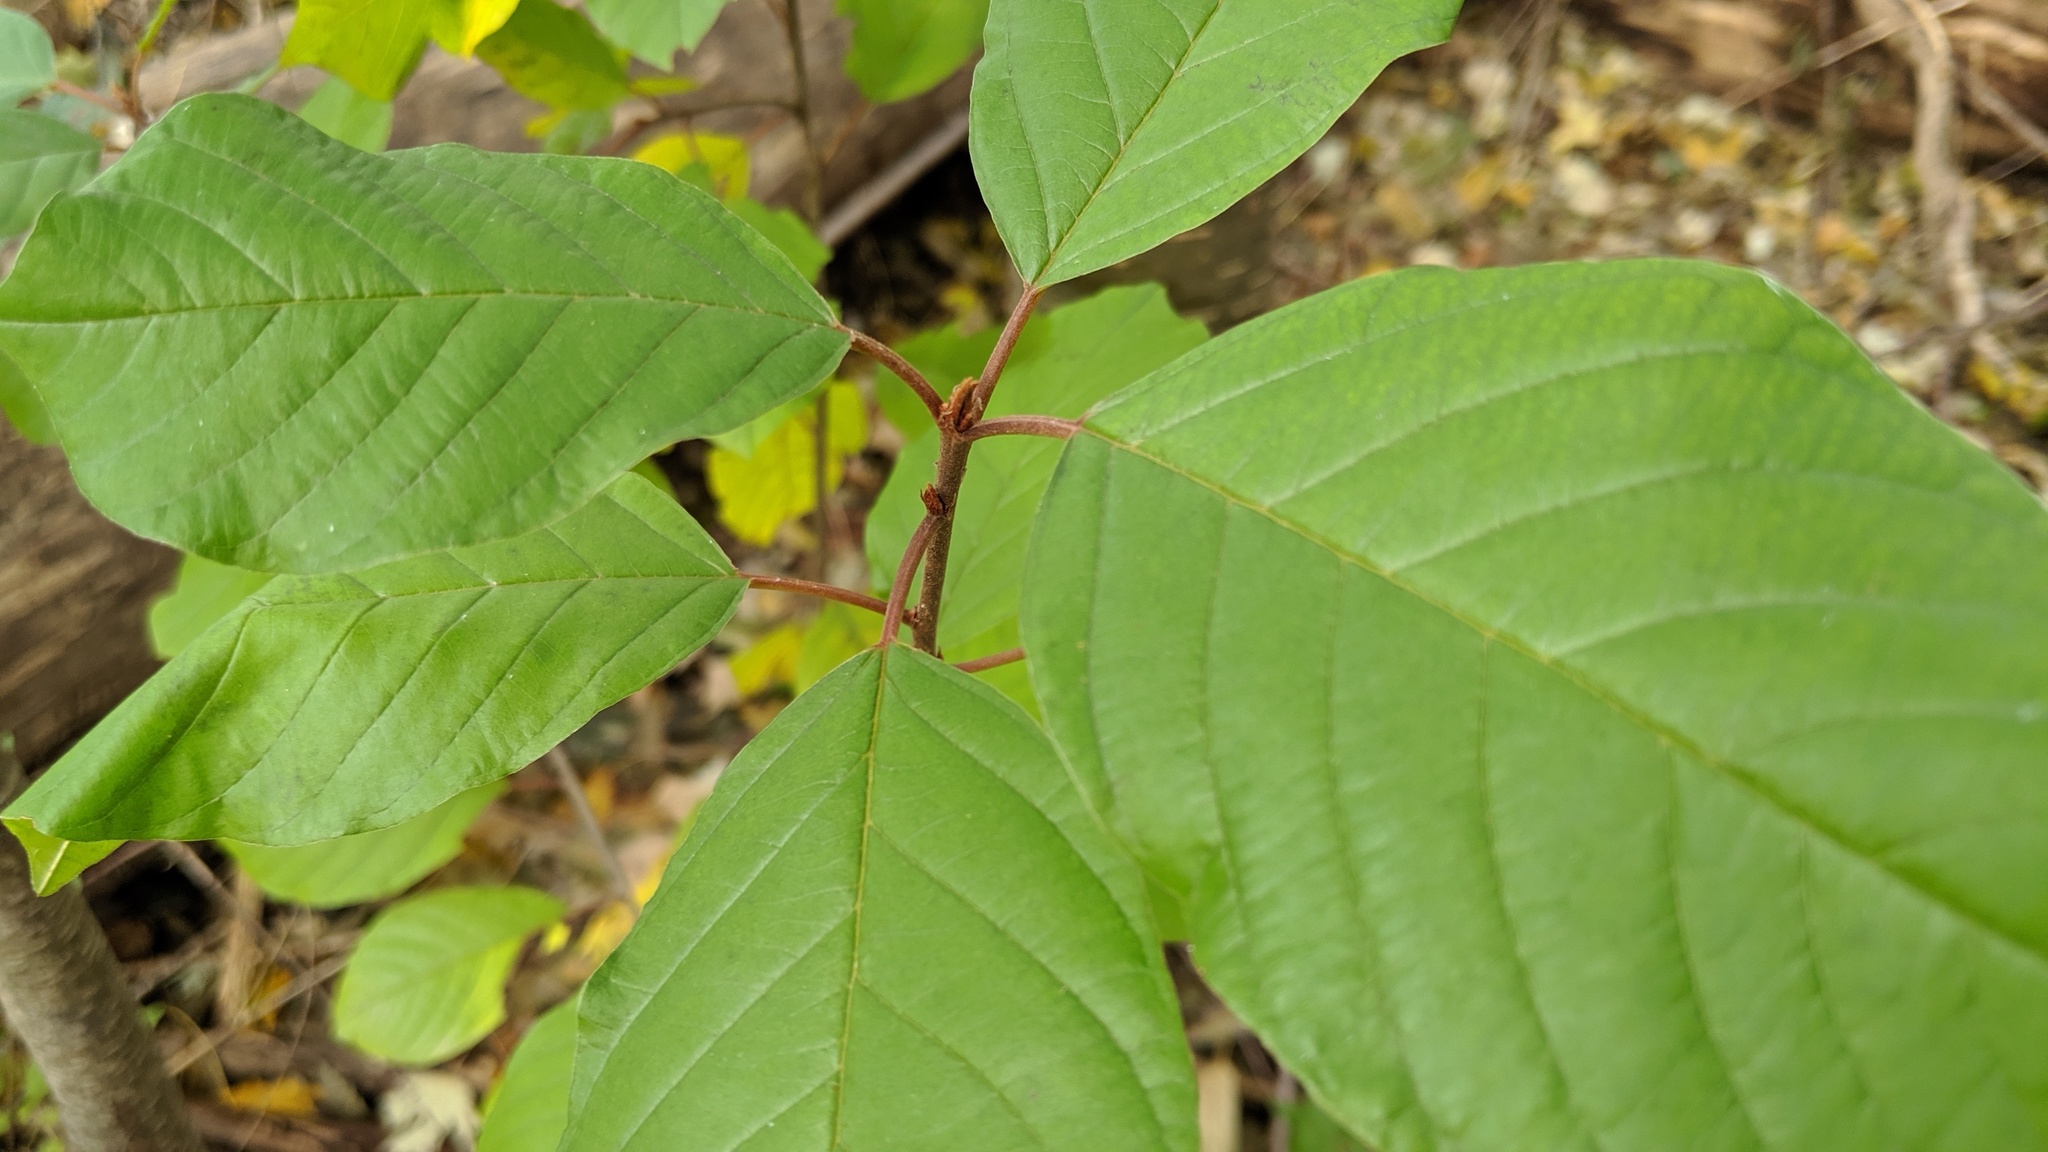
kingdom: Plantae
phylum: Tracheophyta
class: Magnoliopsida
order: Rosales
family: Rhamnaceae
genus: Frangula
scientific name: Frangula alnus
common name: Alder buckthorn
